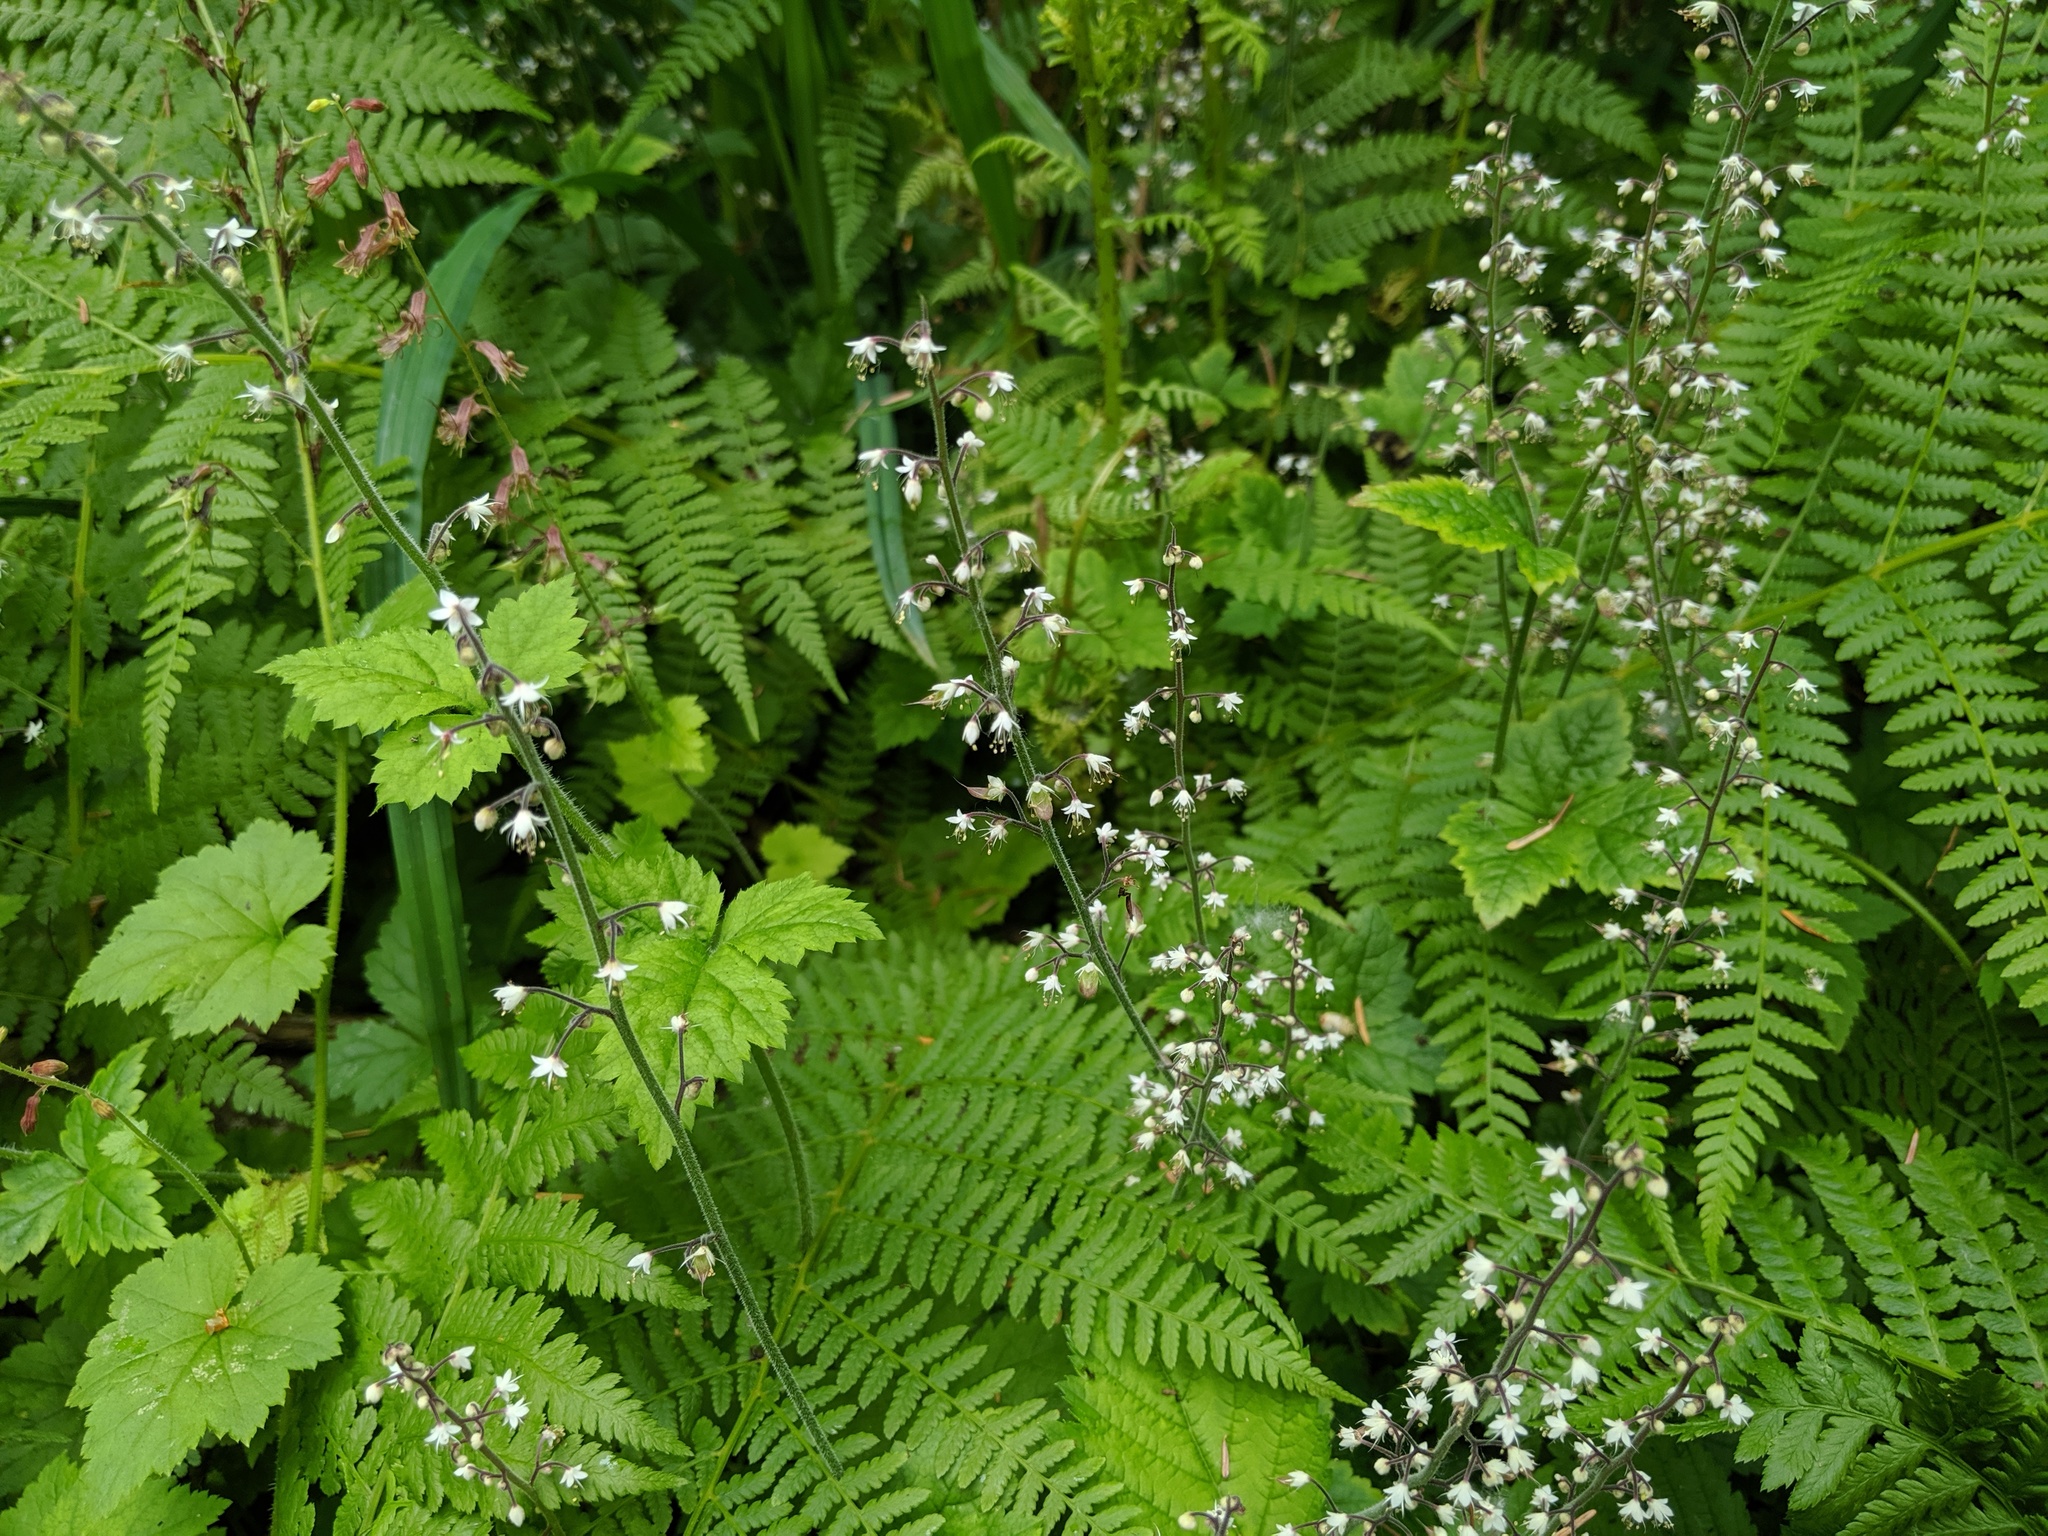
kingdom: Plantae
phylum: Tracheophyta
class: Magnoliopsida
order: Saxifragales
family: Saxifragaceae
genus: Tiarella
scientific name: Tiarella trifoliata
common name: Sugar-scoop
